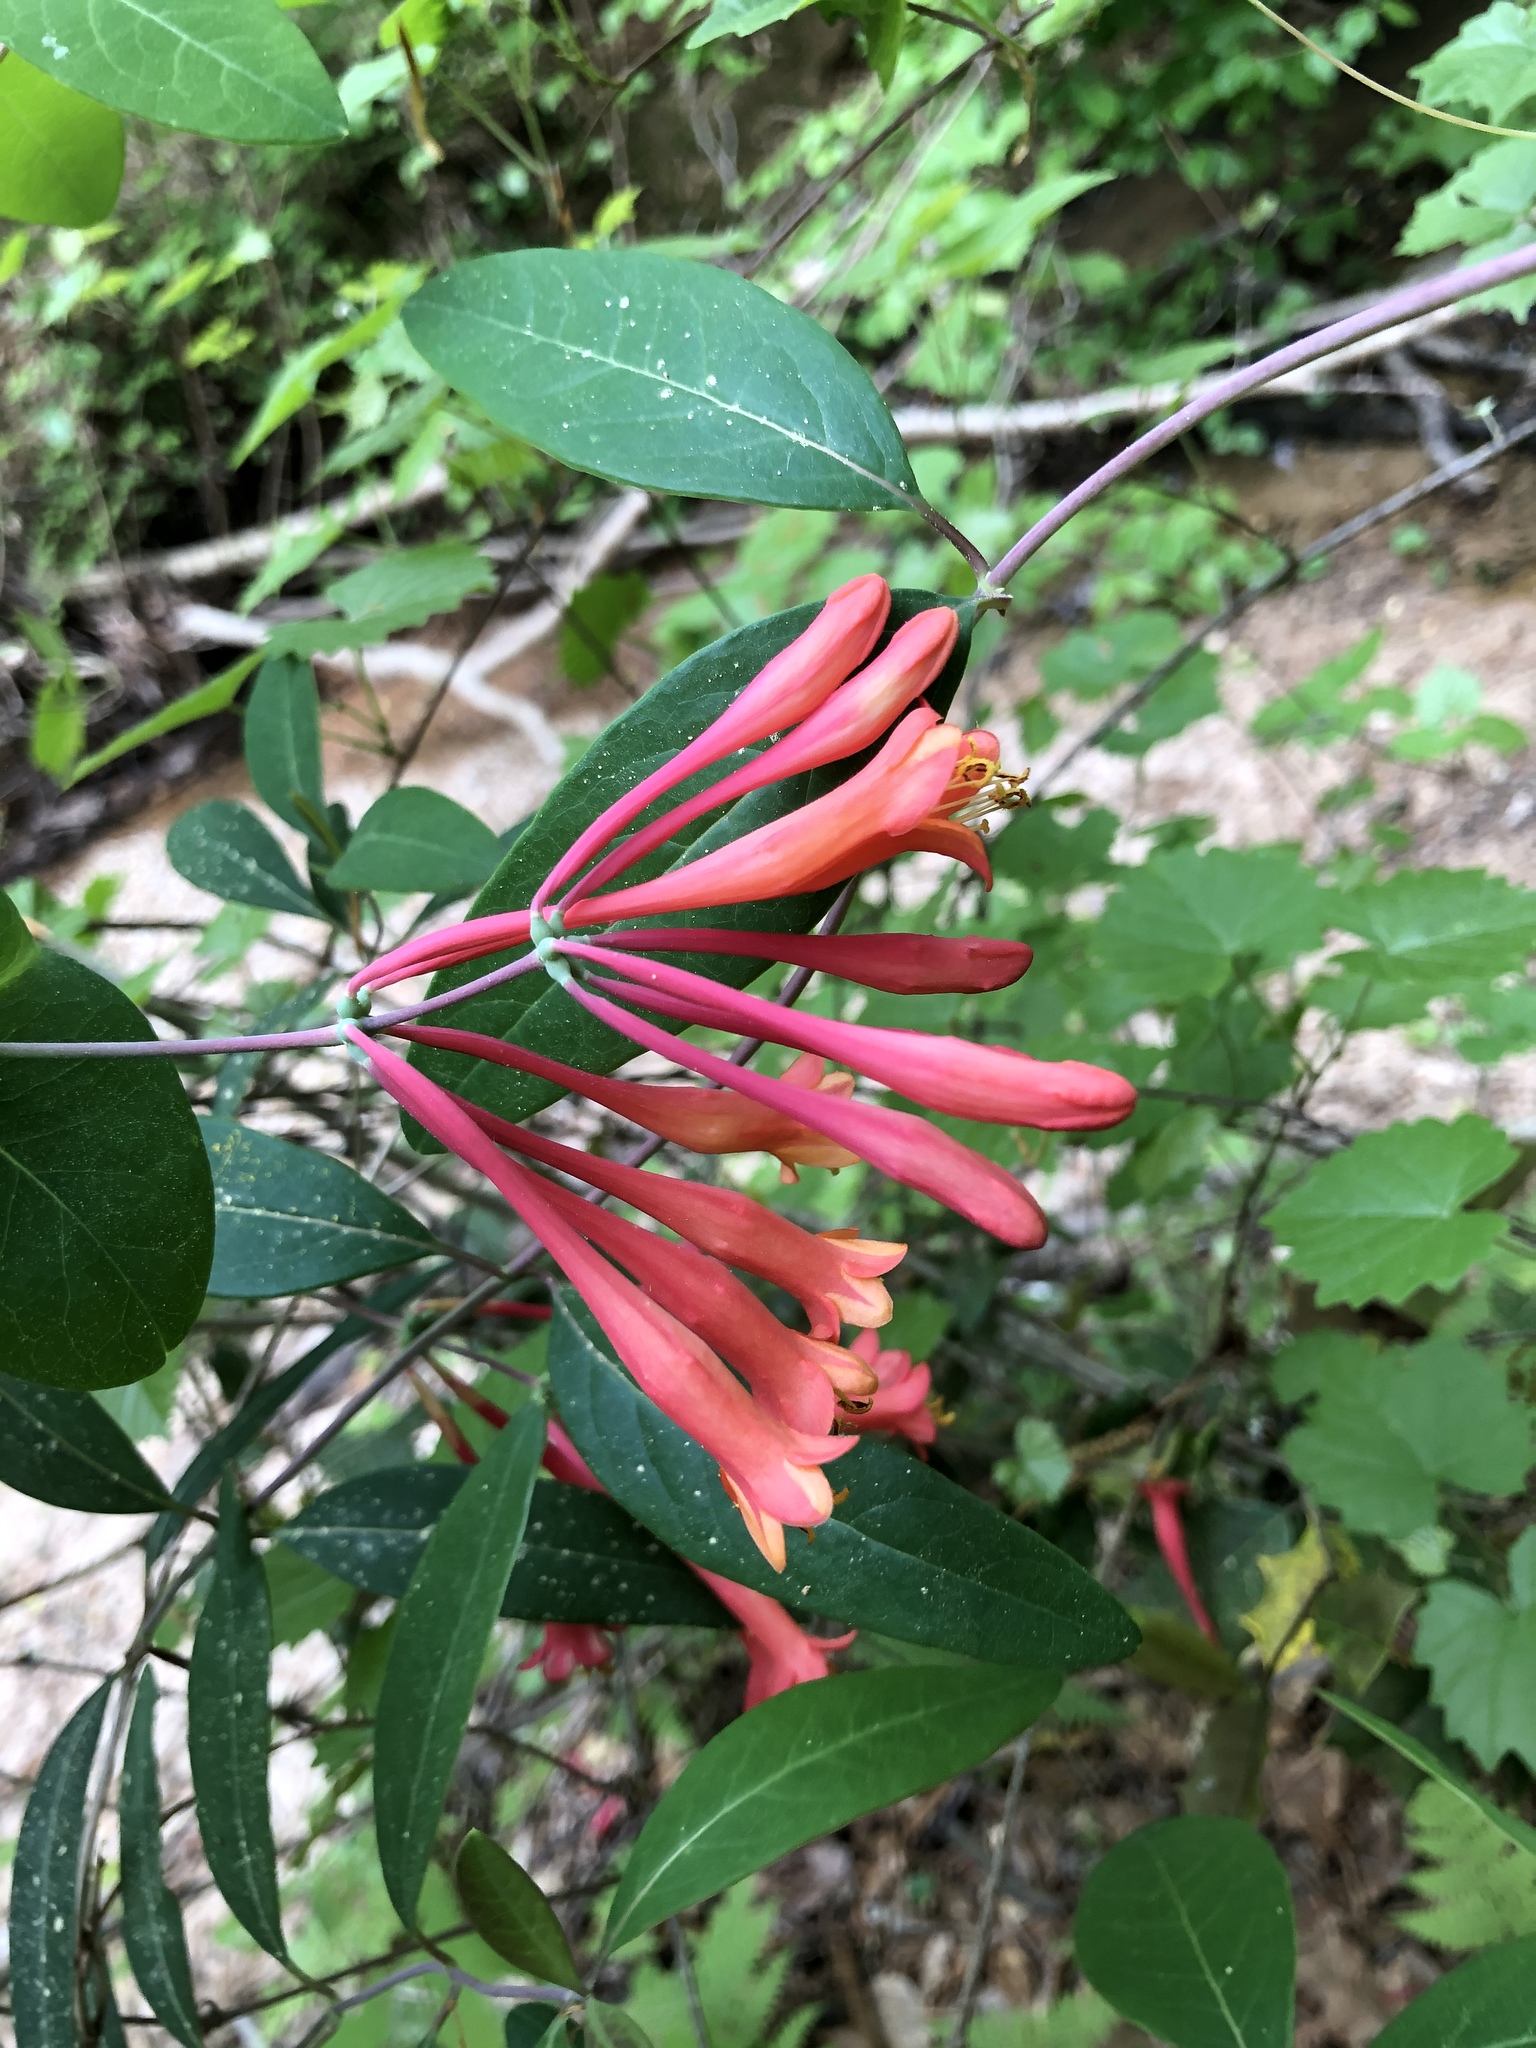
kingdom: Plantae
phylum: Tracheophyta
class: Magnoliopsida
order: Dipsacales
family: Caprifoliaceae
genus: Lonicera
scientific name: Lonicera sempervirens
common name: Coral honeysuckle
